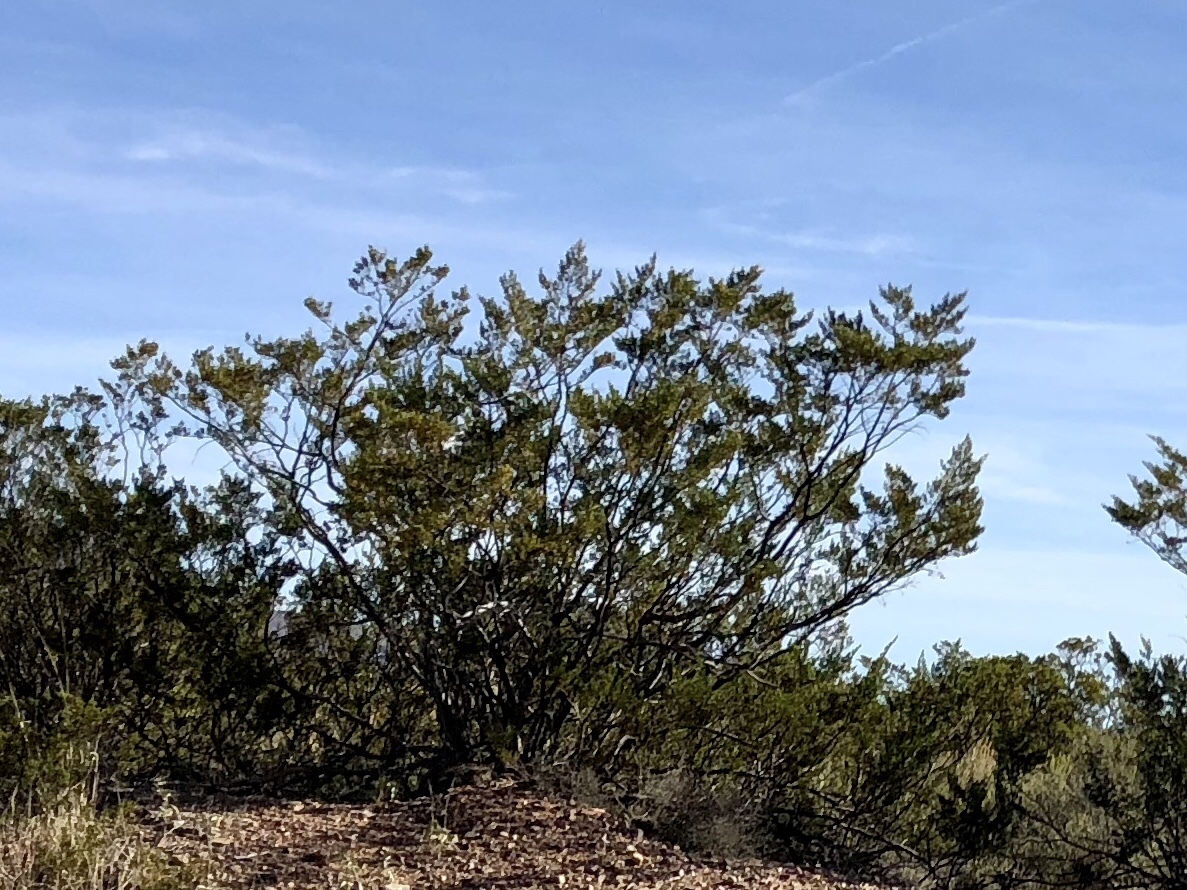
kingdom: Plantae
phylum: Tracheophyta
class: Magnoliopsida
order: Zygophyllales
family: Zygophyllaceae
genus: Larrea
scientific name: Larrea tridentata
